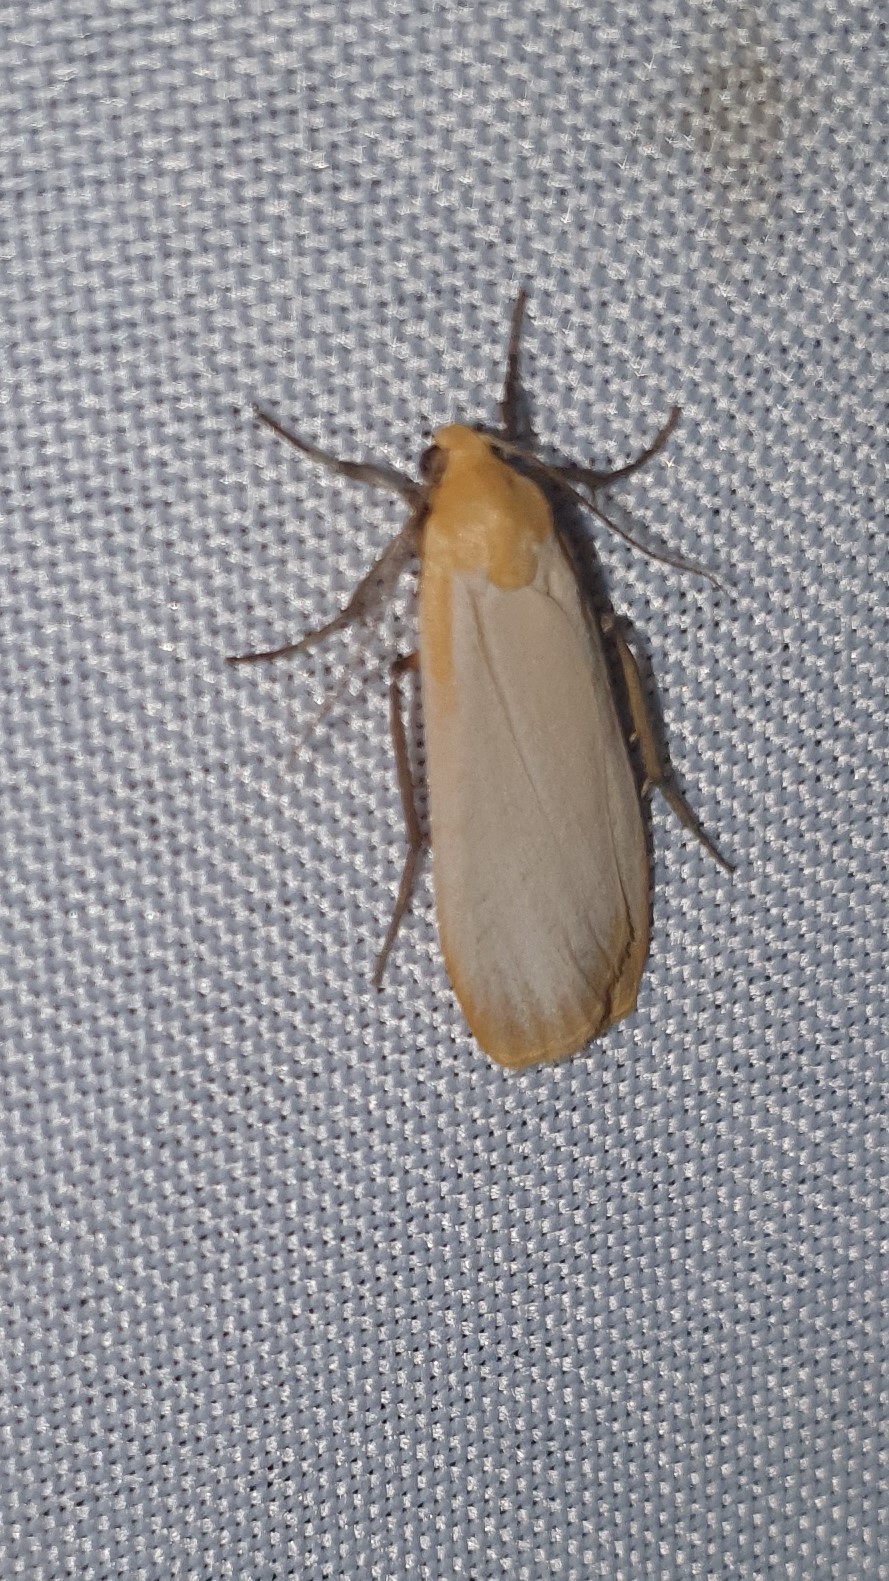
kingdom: Animalia
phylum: Arthropoda
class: Insecta
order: Lepidoptera
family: Erebidae
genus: Katha
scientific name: Katha depressa
